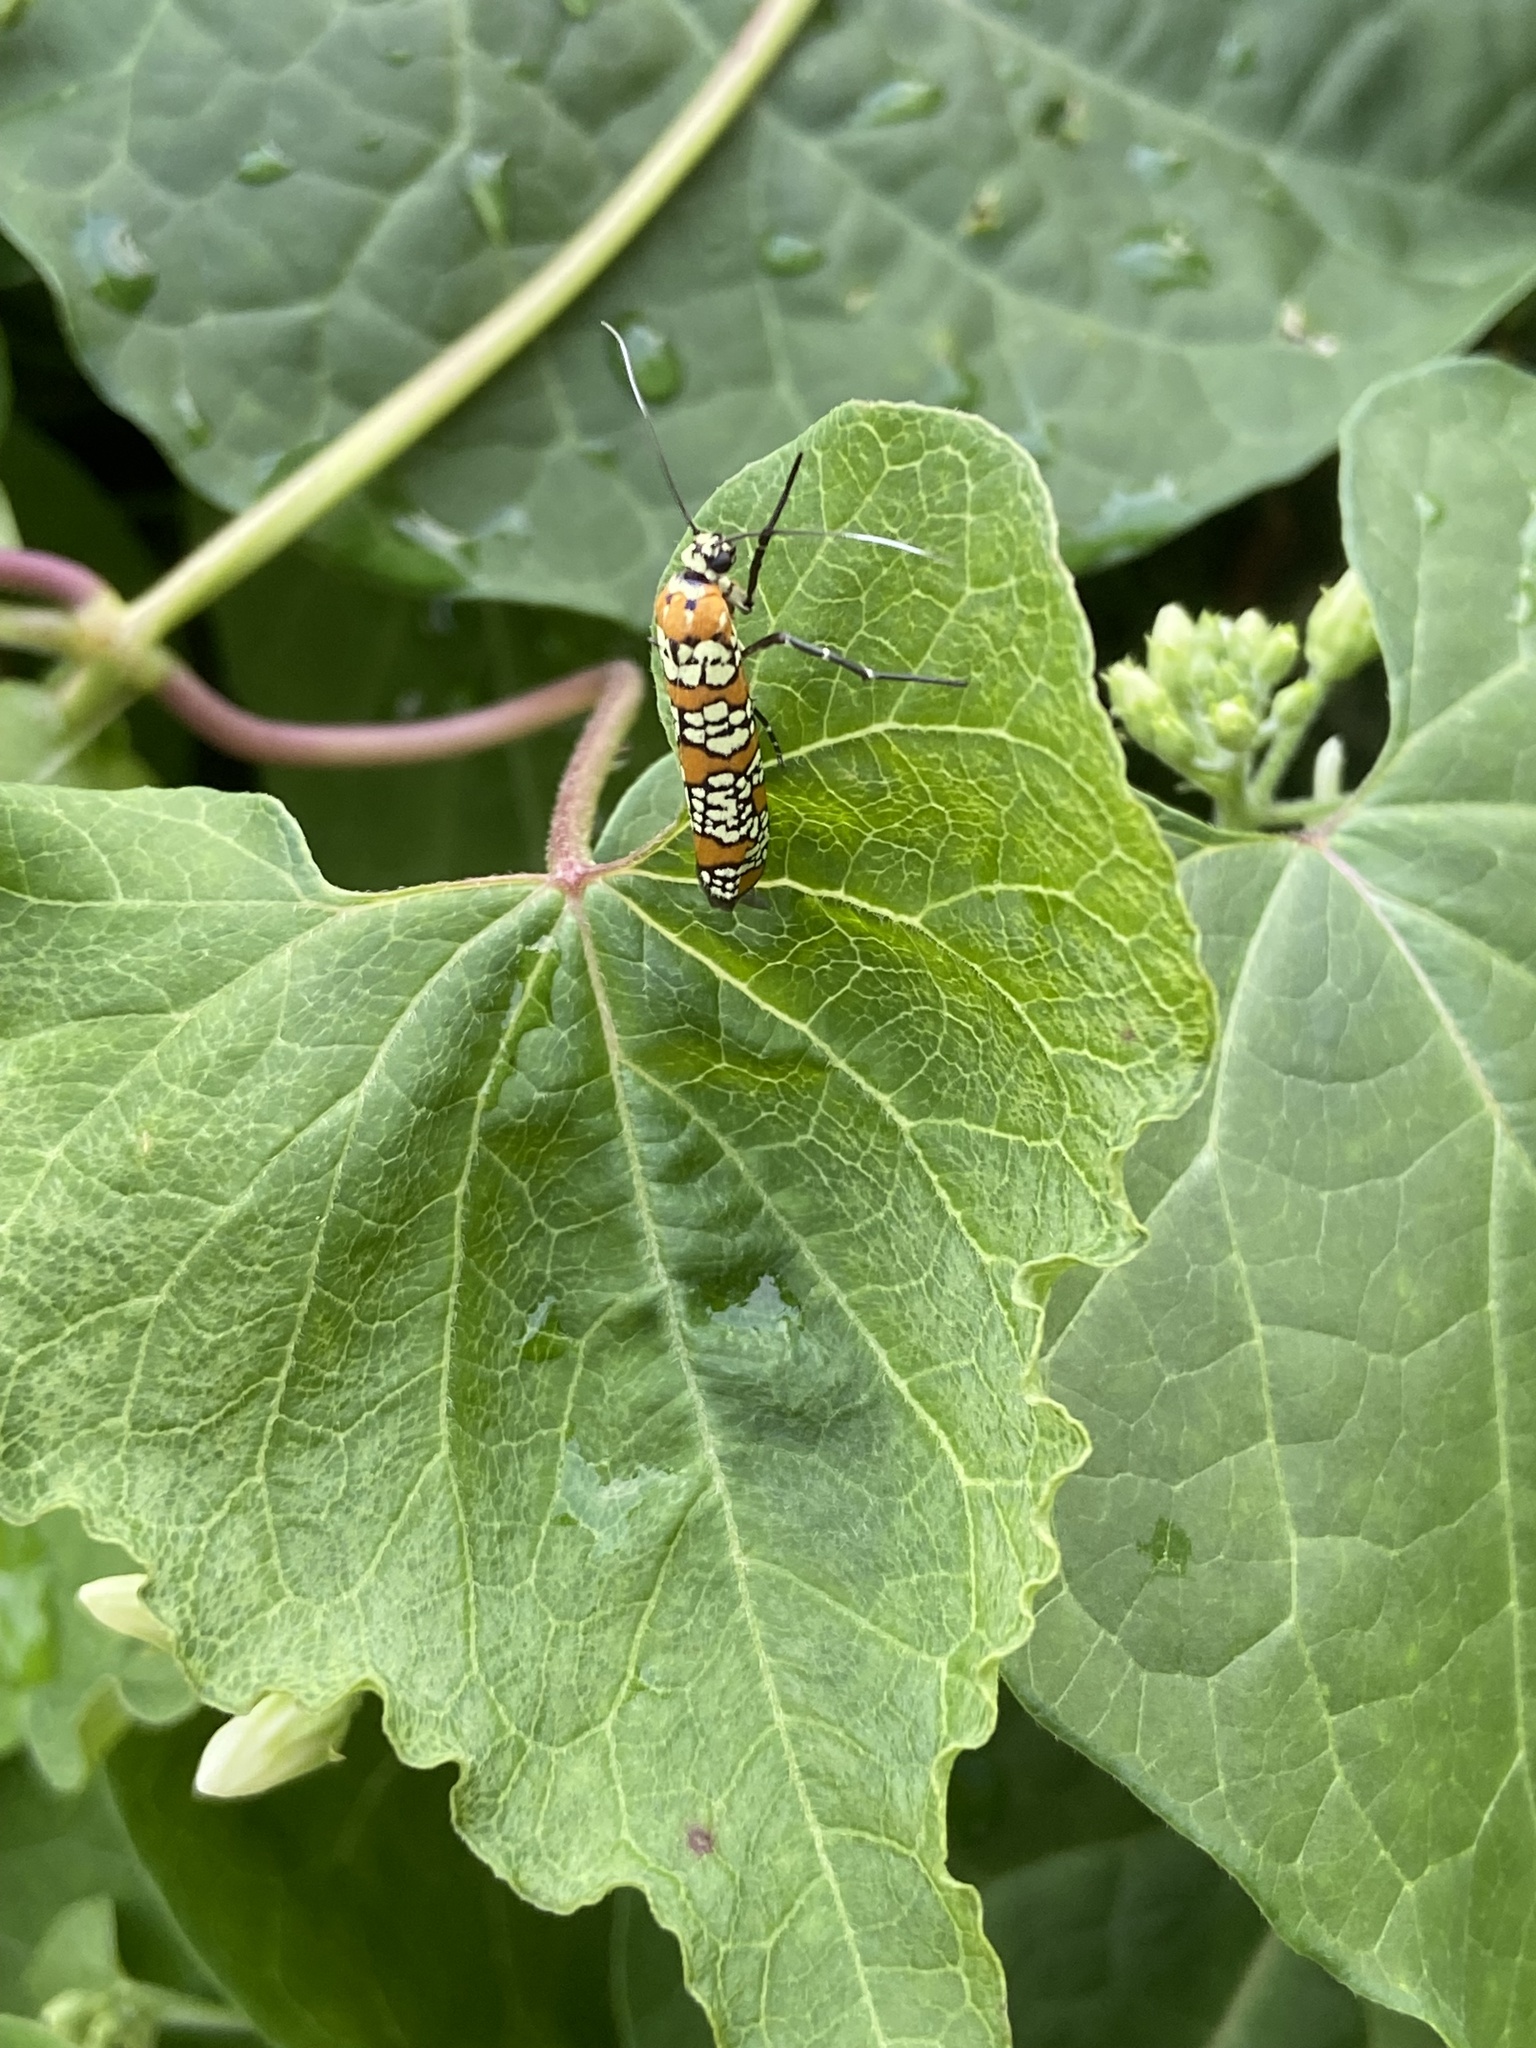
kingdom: Animalia
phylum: Arthropoda
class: Insecta
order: Lepidoptera
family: Attevidae
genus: Atteva
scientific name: Atteva punctella
